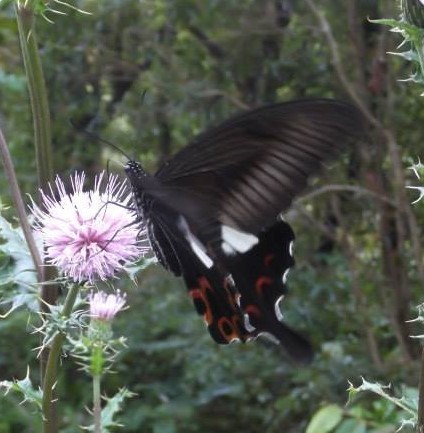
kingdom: Animalia
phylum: Arthropoda
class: Insecta
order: Lepidoptera
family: Papilionidae
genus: Papilio
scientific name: Papilio helenus
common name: Red helen
